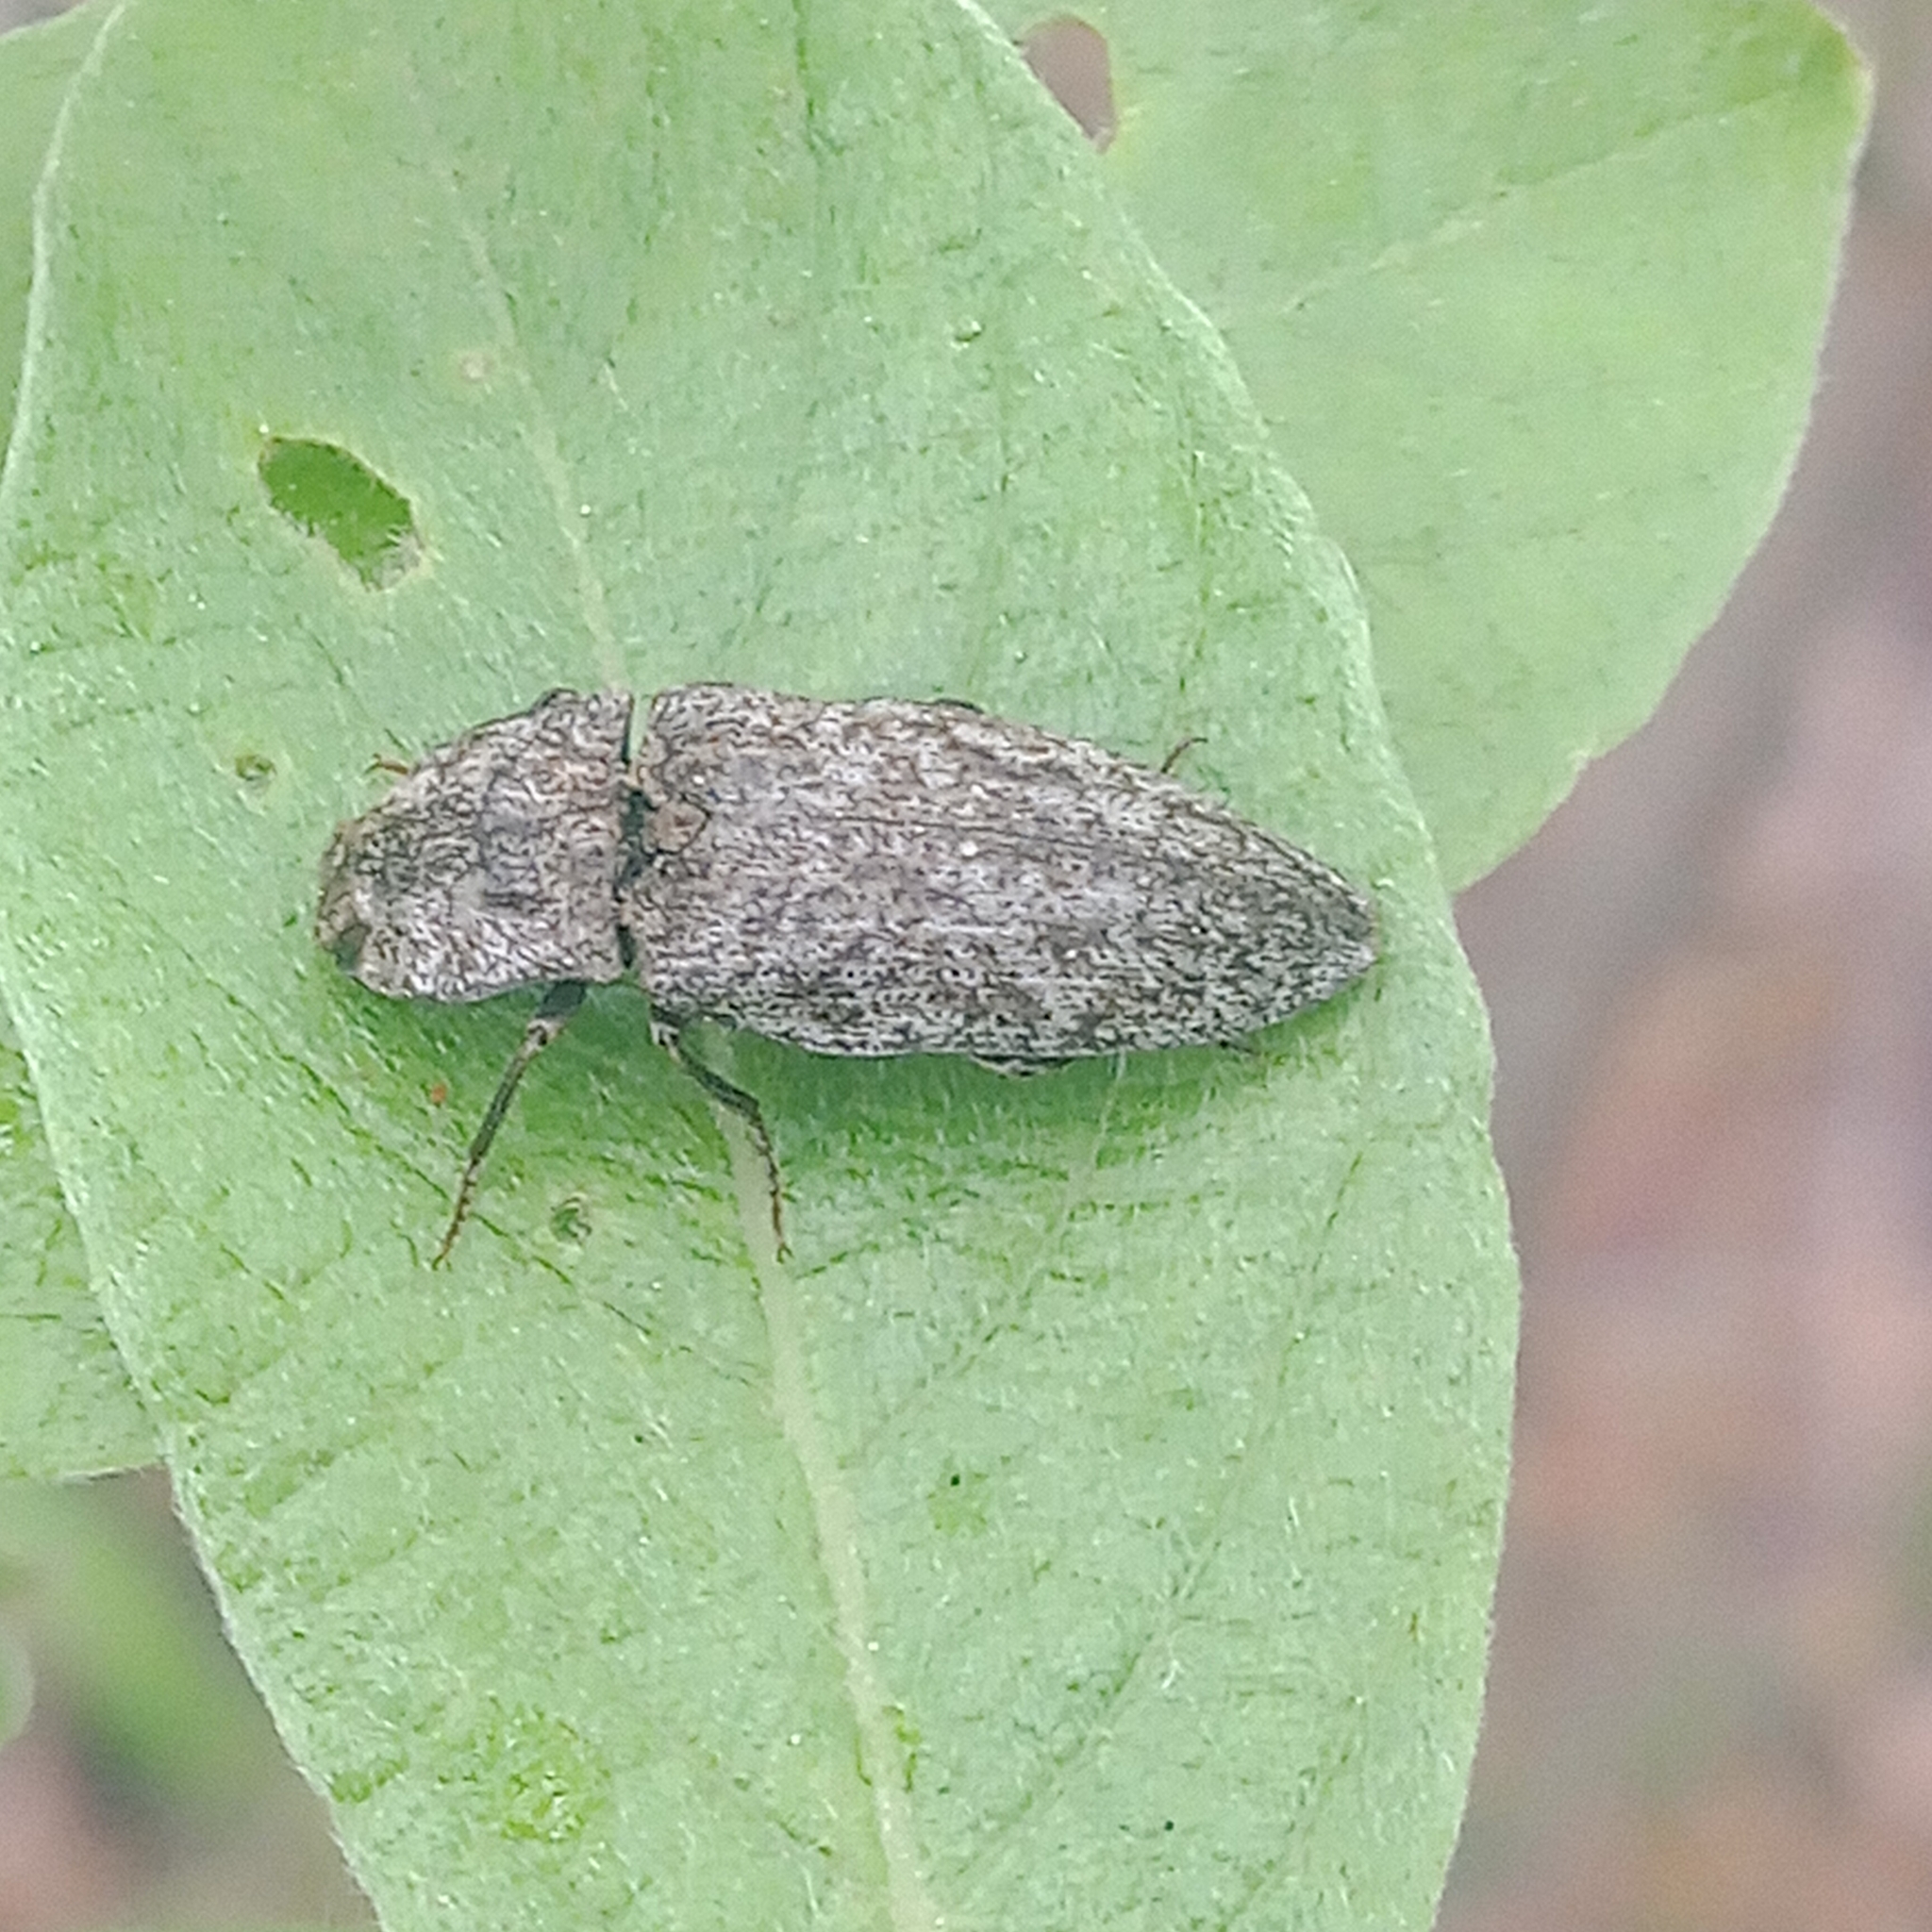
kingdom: Animalia
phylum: Arthropoda
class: Insecta
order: Coleoptera
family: Elateridae
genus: Agrypnus
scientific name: Agrypnus murinus
